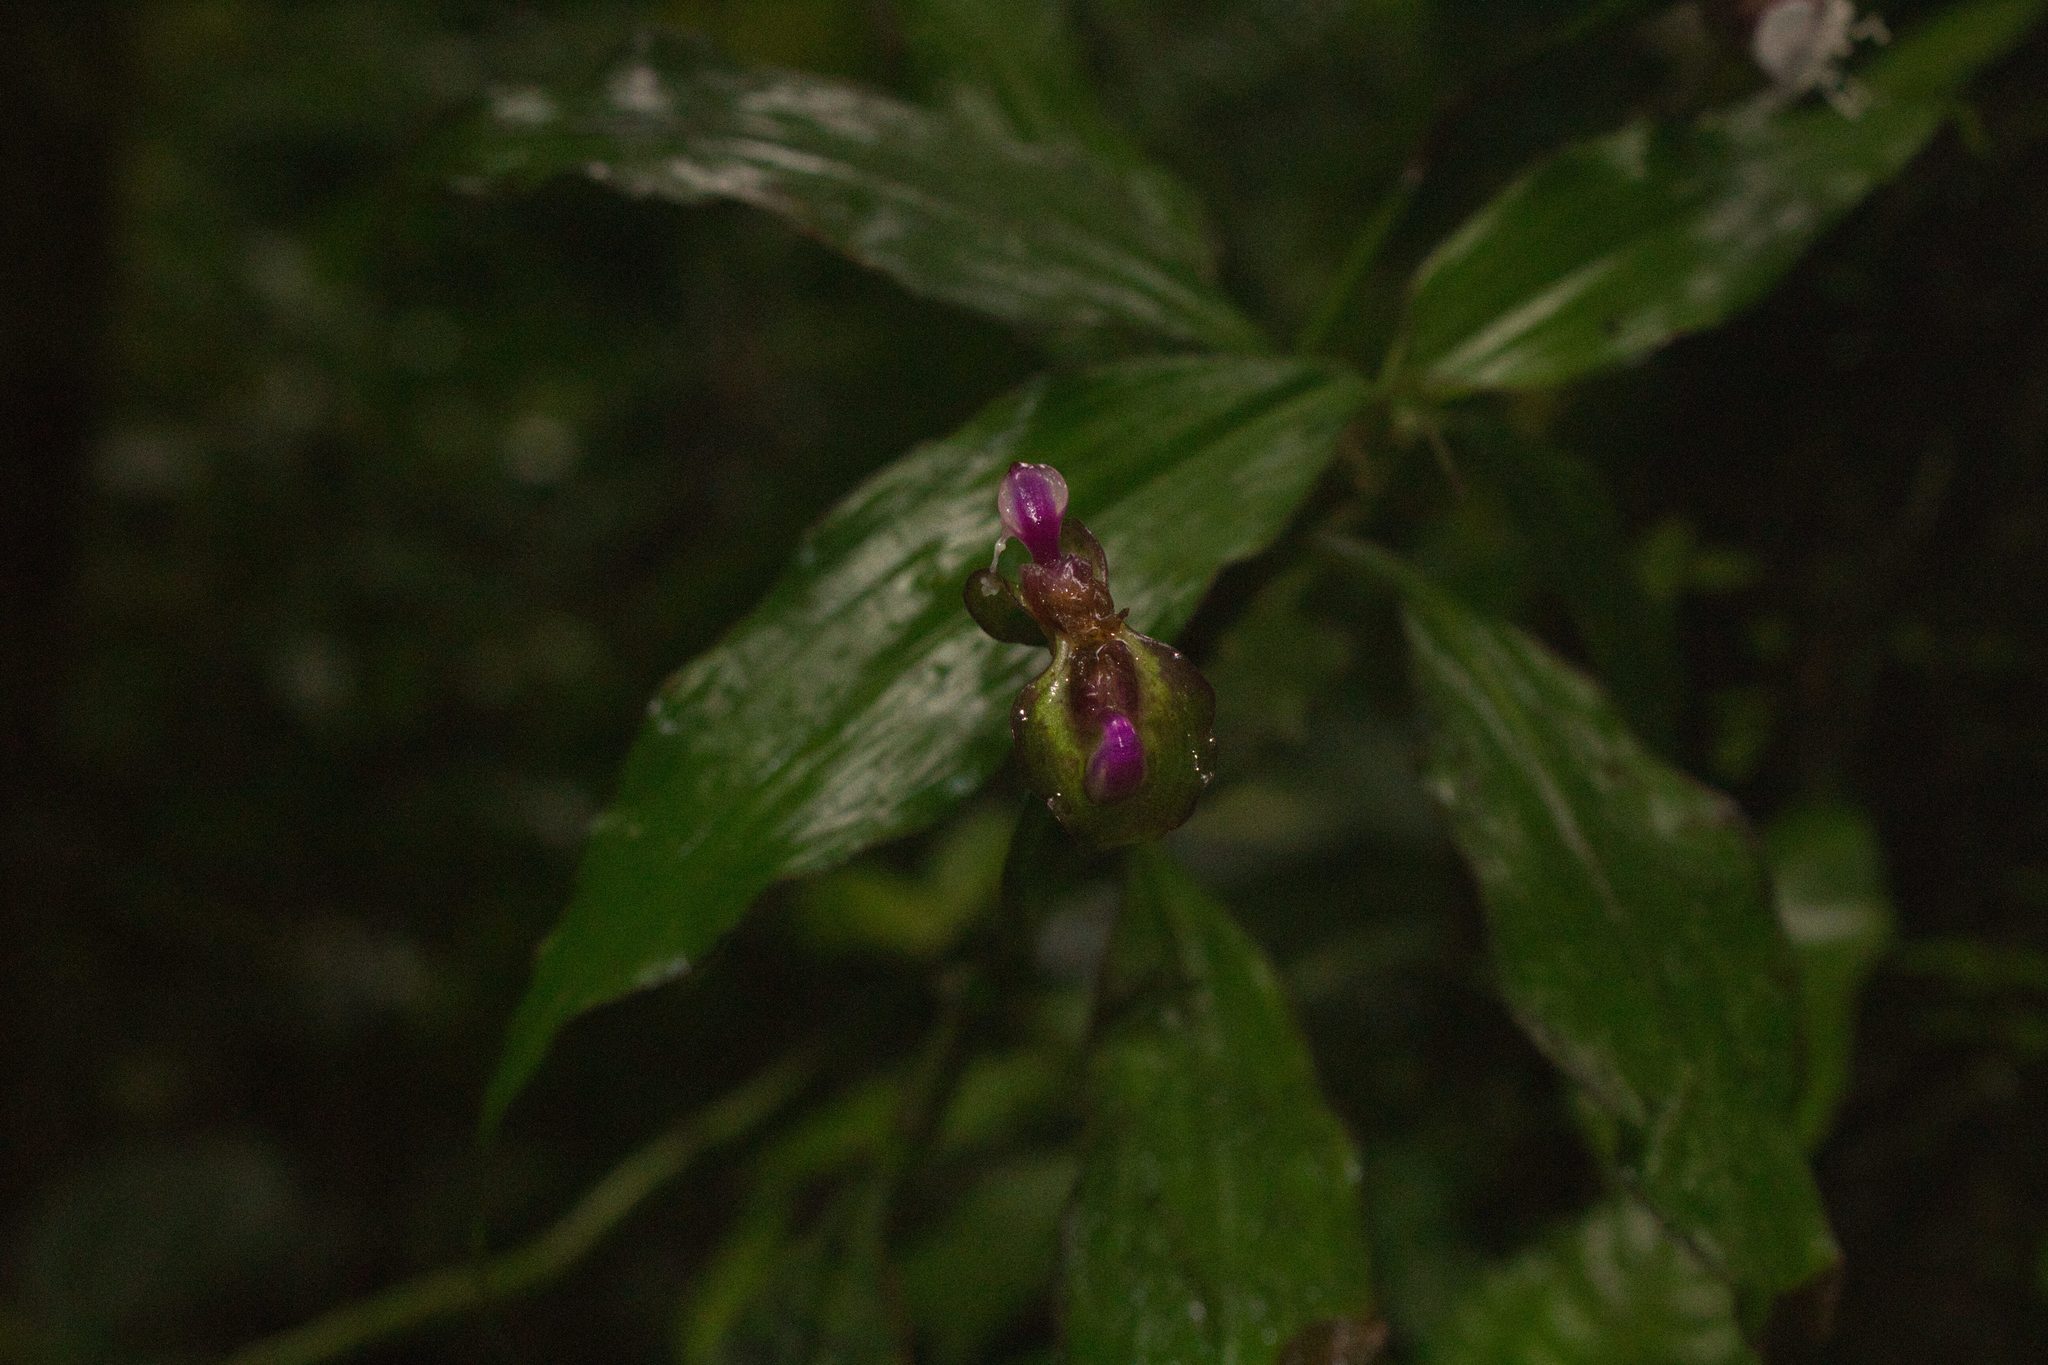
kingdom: Plantae
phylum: Tracheophyta
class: Liliopsida
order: Commelinales
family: Commelinaceae
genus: Tradescantia
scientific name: Tradescantia zanonia
